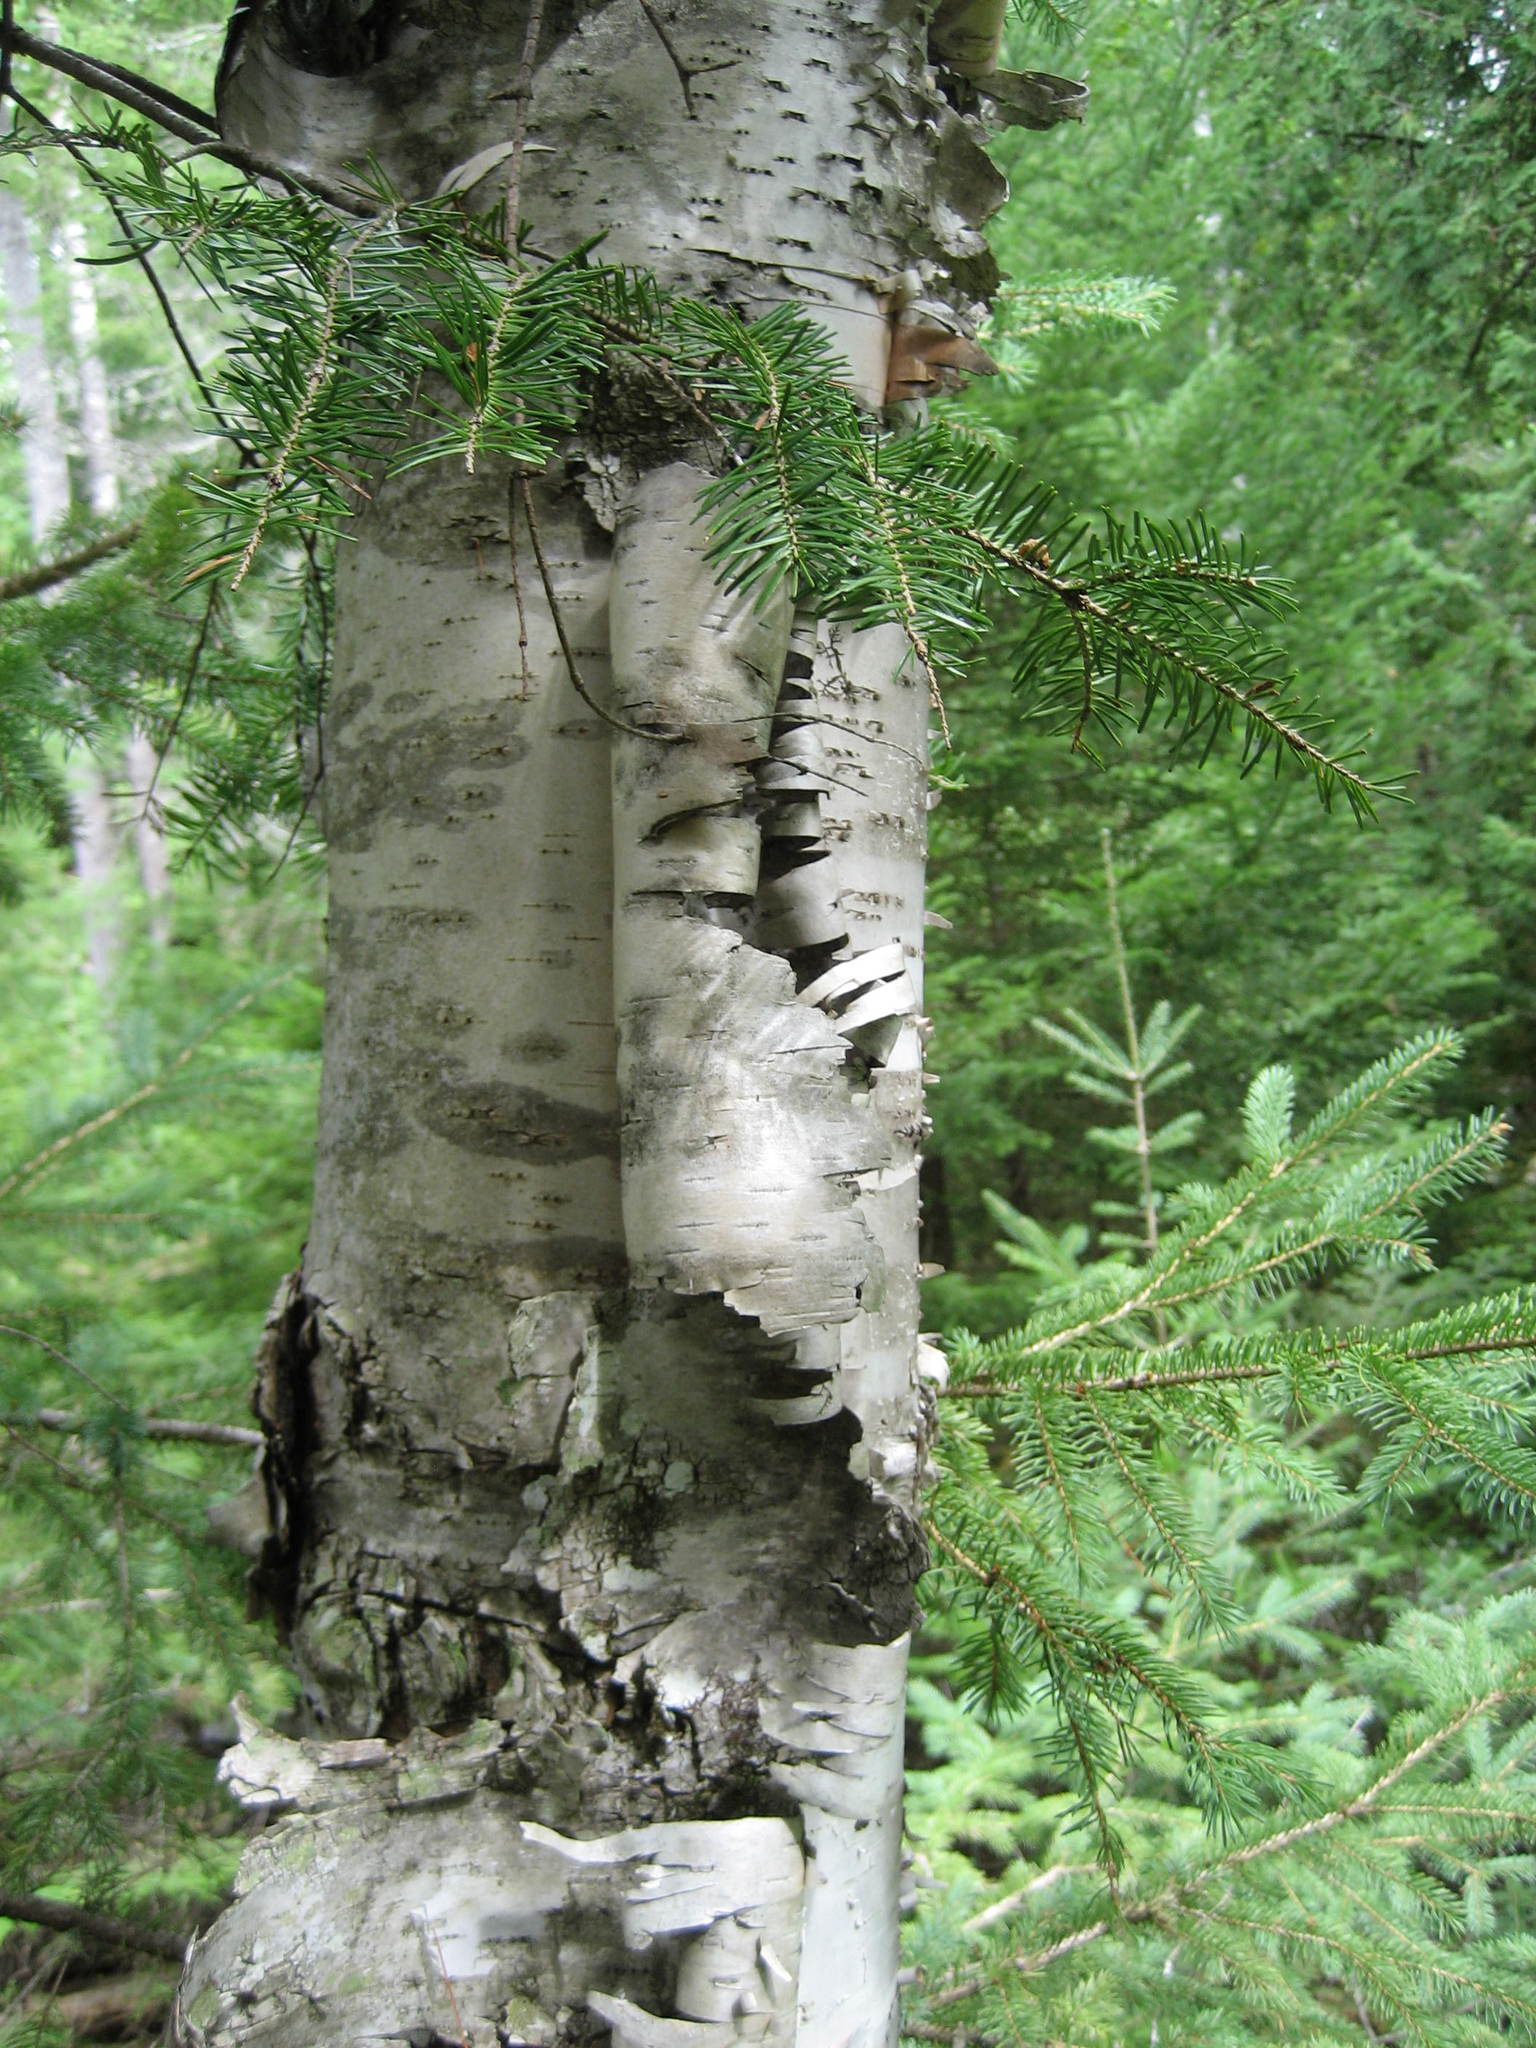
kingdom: Plantae
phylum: Tracheophyta
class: Magnoliopsida
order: Fagales
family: Betulaceae
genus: Betula
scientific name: Betula papyrifera
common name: Paper birch
